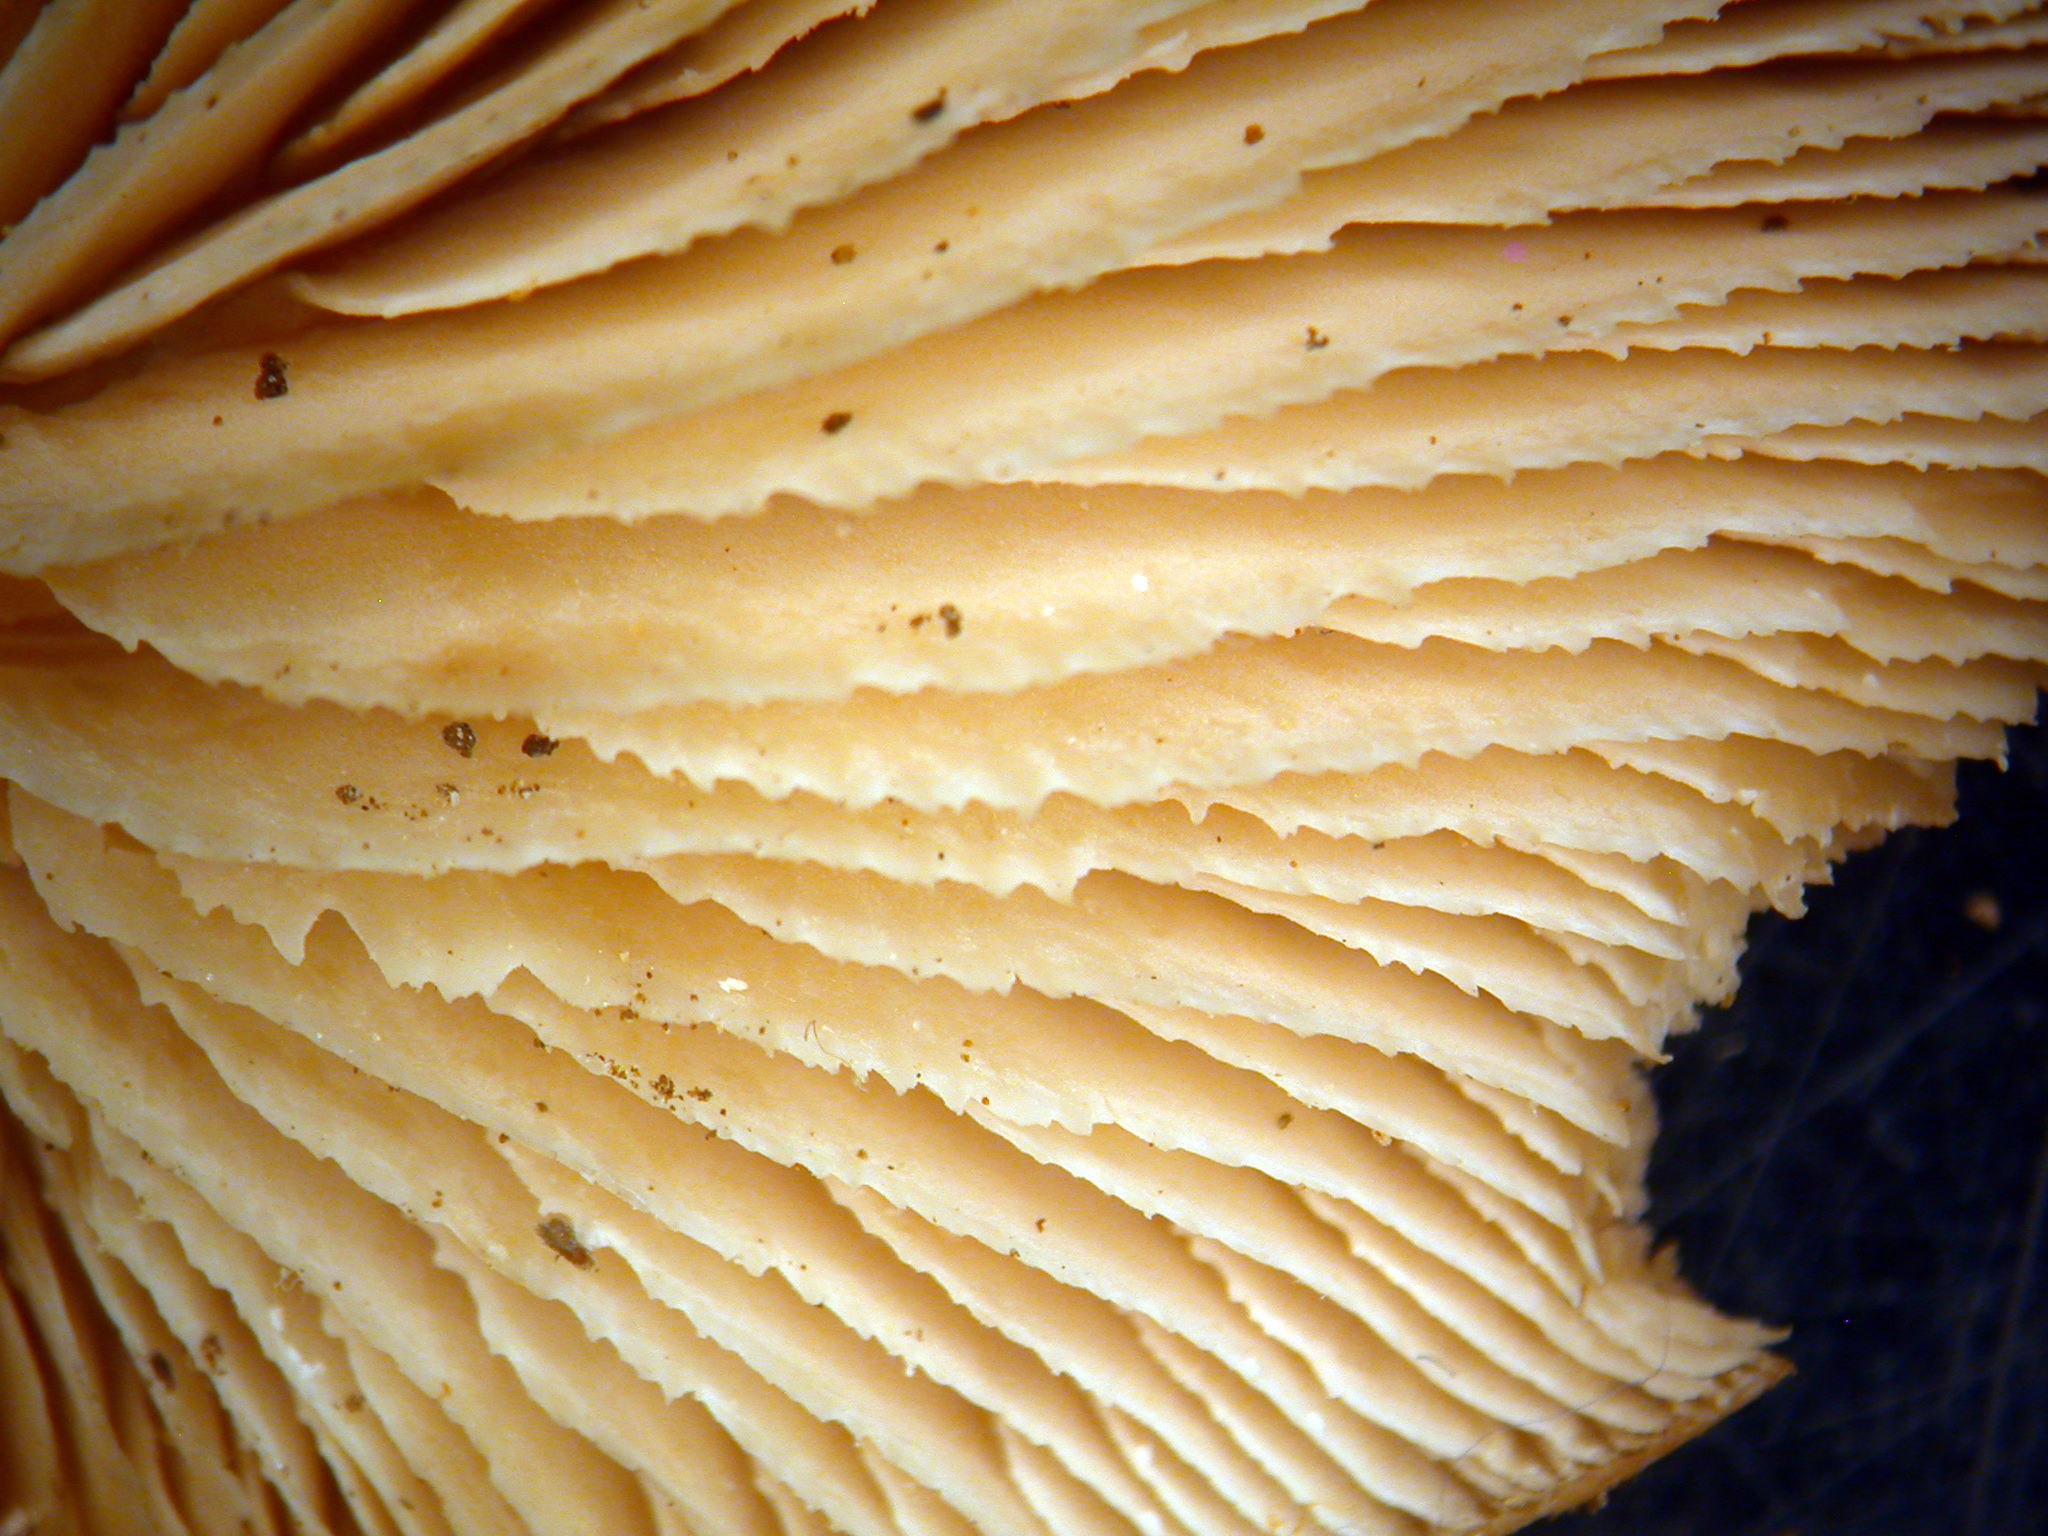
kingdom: Fungi
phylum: Basidiomycota
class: Agaricomycetes
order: Russulales
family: Auriscalpiaceae
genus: Lentinellus
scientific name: Lentinellus pulvinulus
